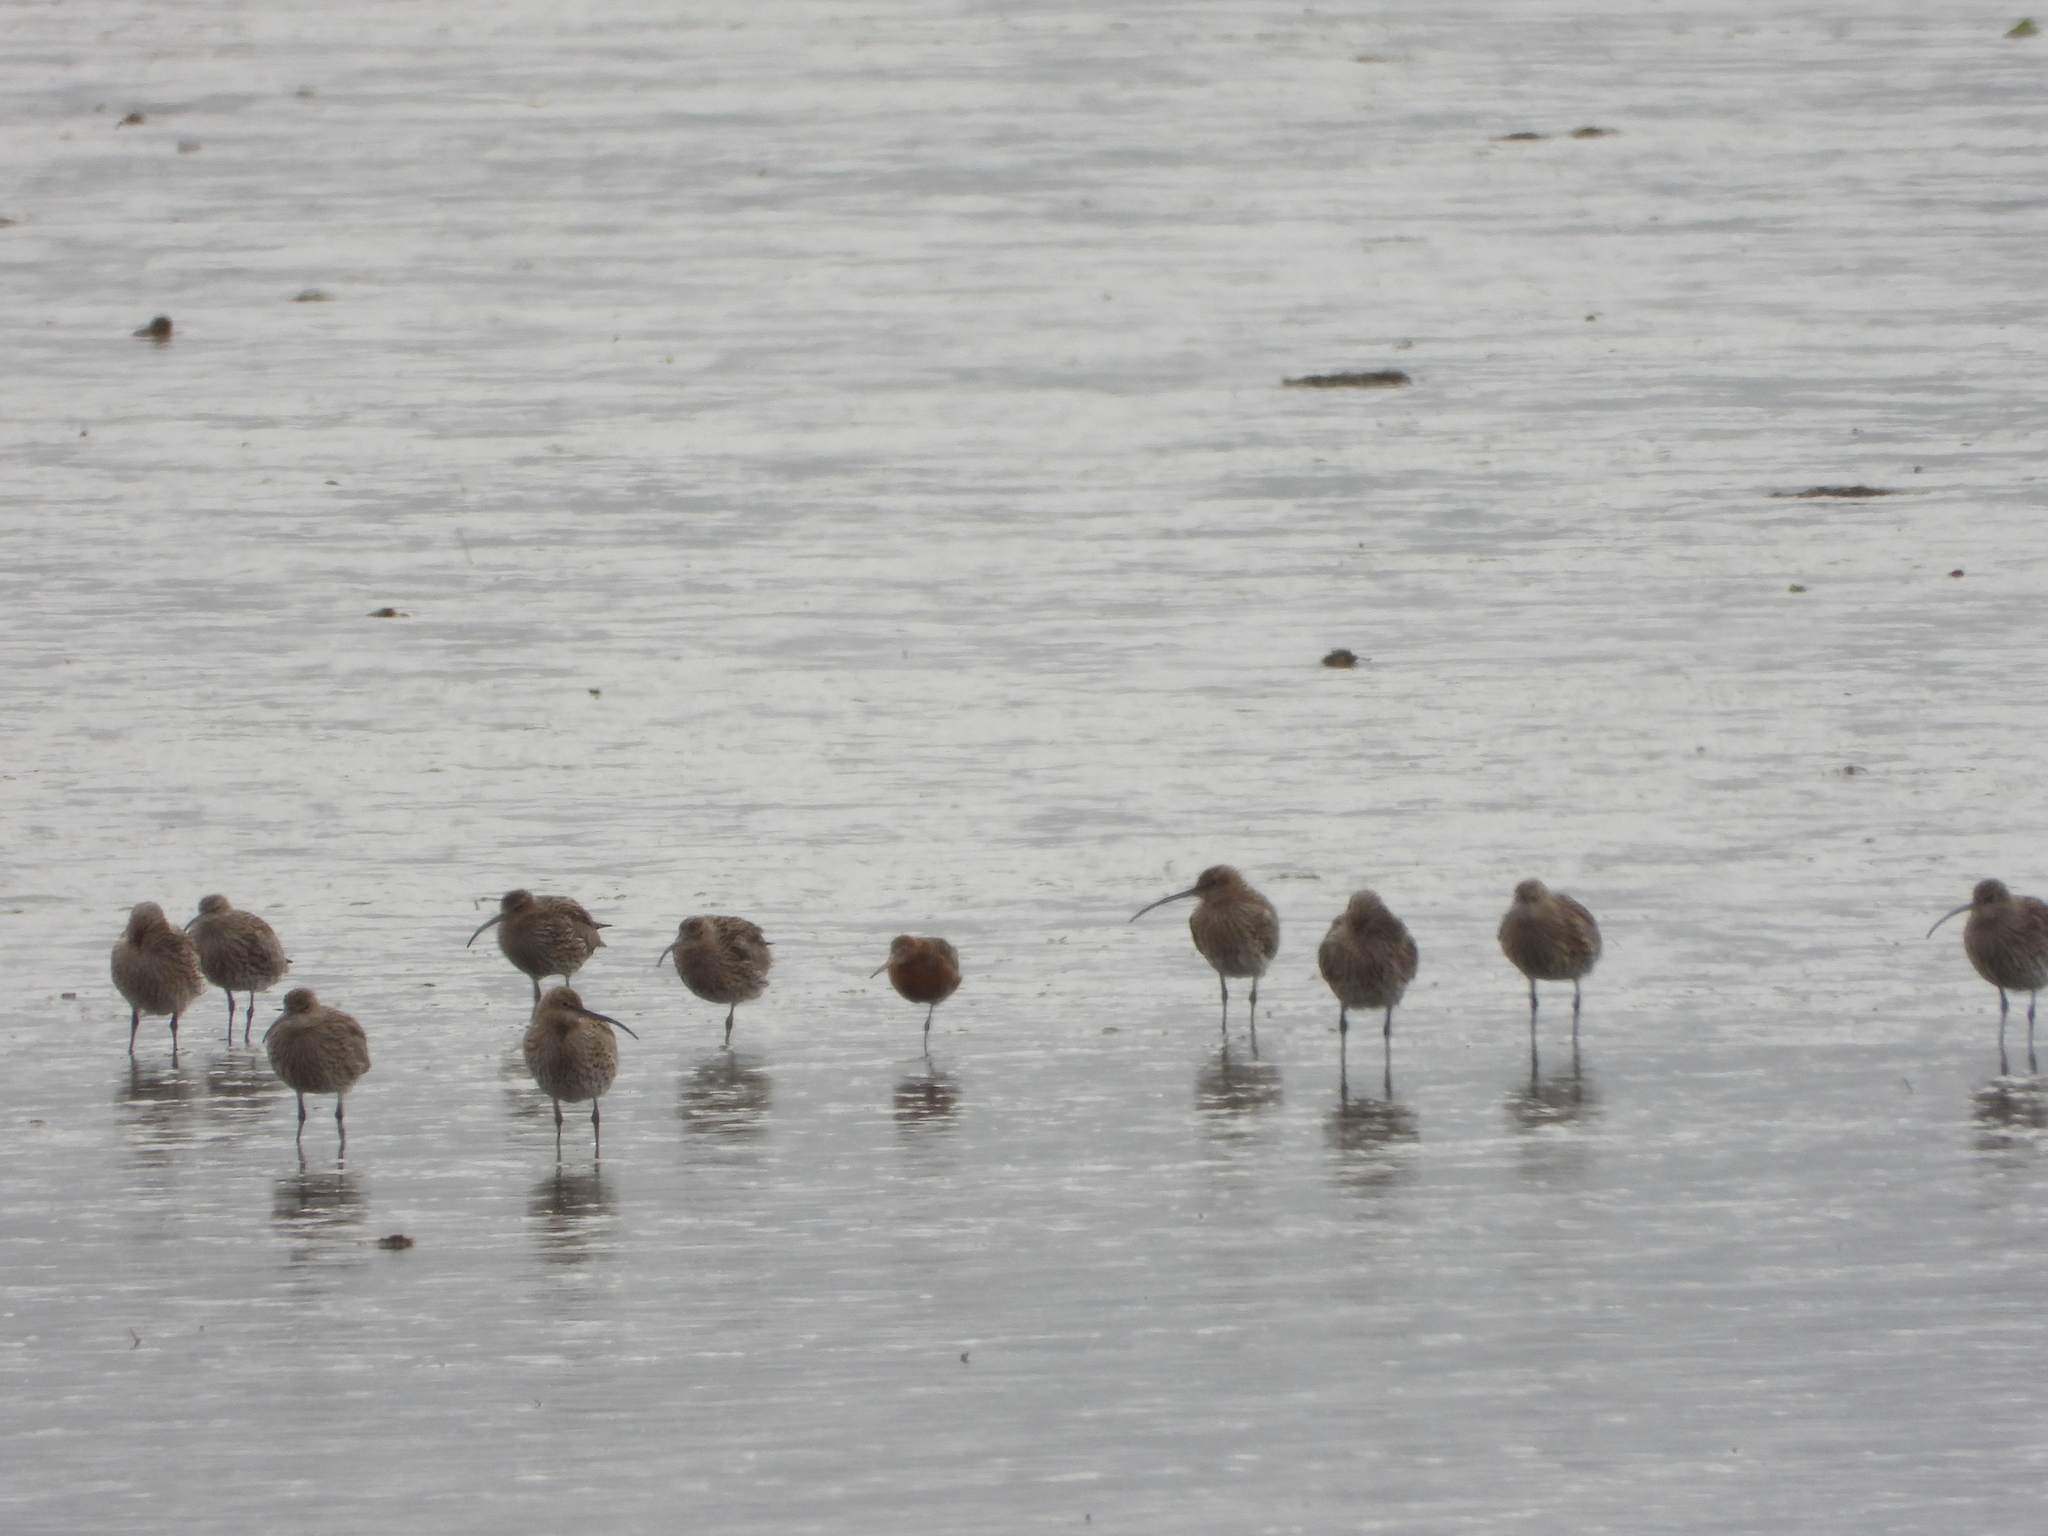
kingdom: Animalia
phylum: Chordata
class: Aves
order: Charadriiformes
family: Scolopacidae
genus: Numenius
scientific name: Numenius arquata
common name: Eurasian curlew
